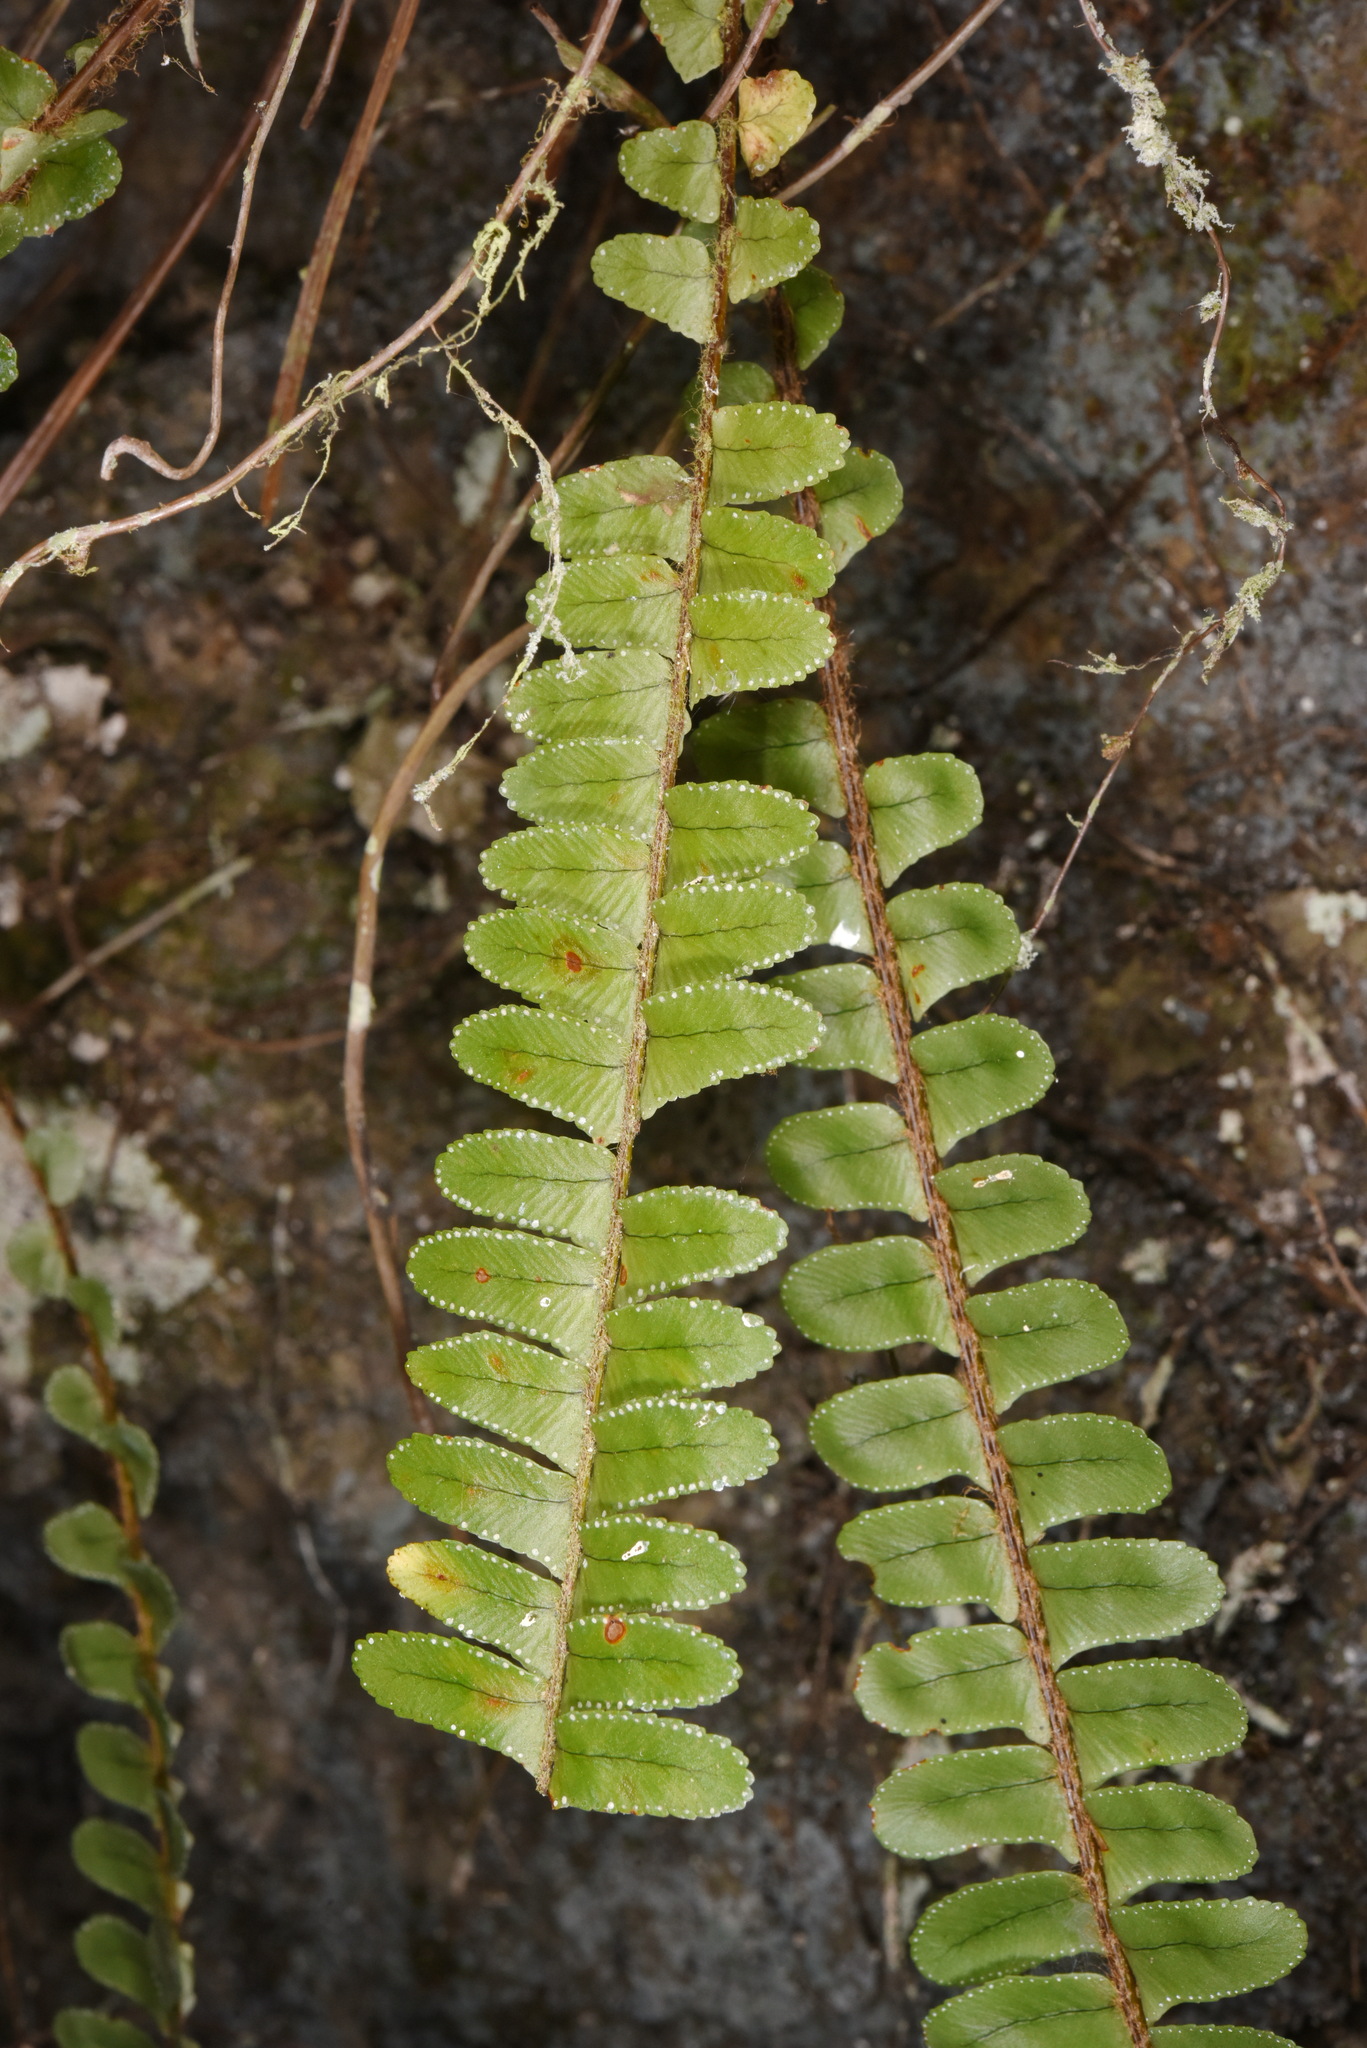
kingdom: Plantae
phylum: Tracheophyta
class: Polypodiopsida
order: Polypodiales
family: Nephrolepidaceae
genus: Nephrolepis
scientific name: Nephrolepis cordifolia
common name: Narrow swordfern
